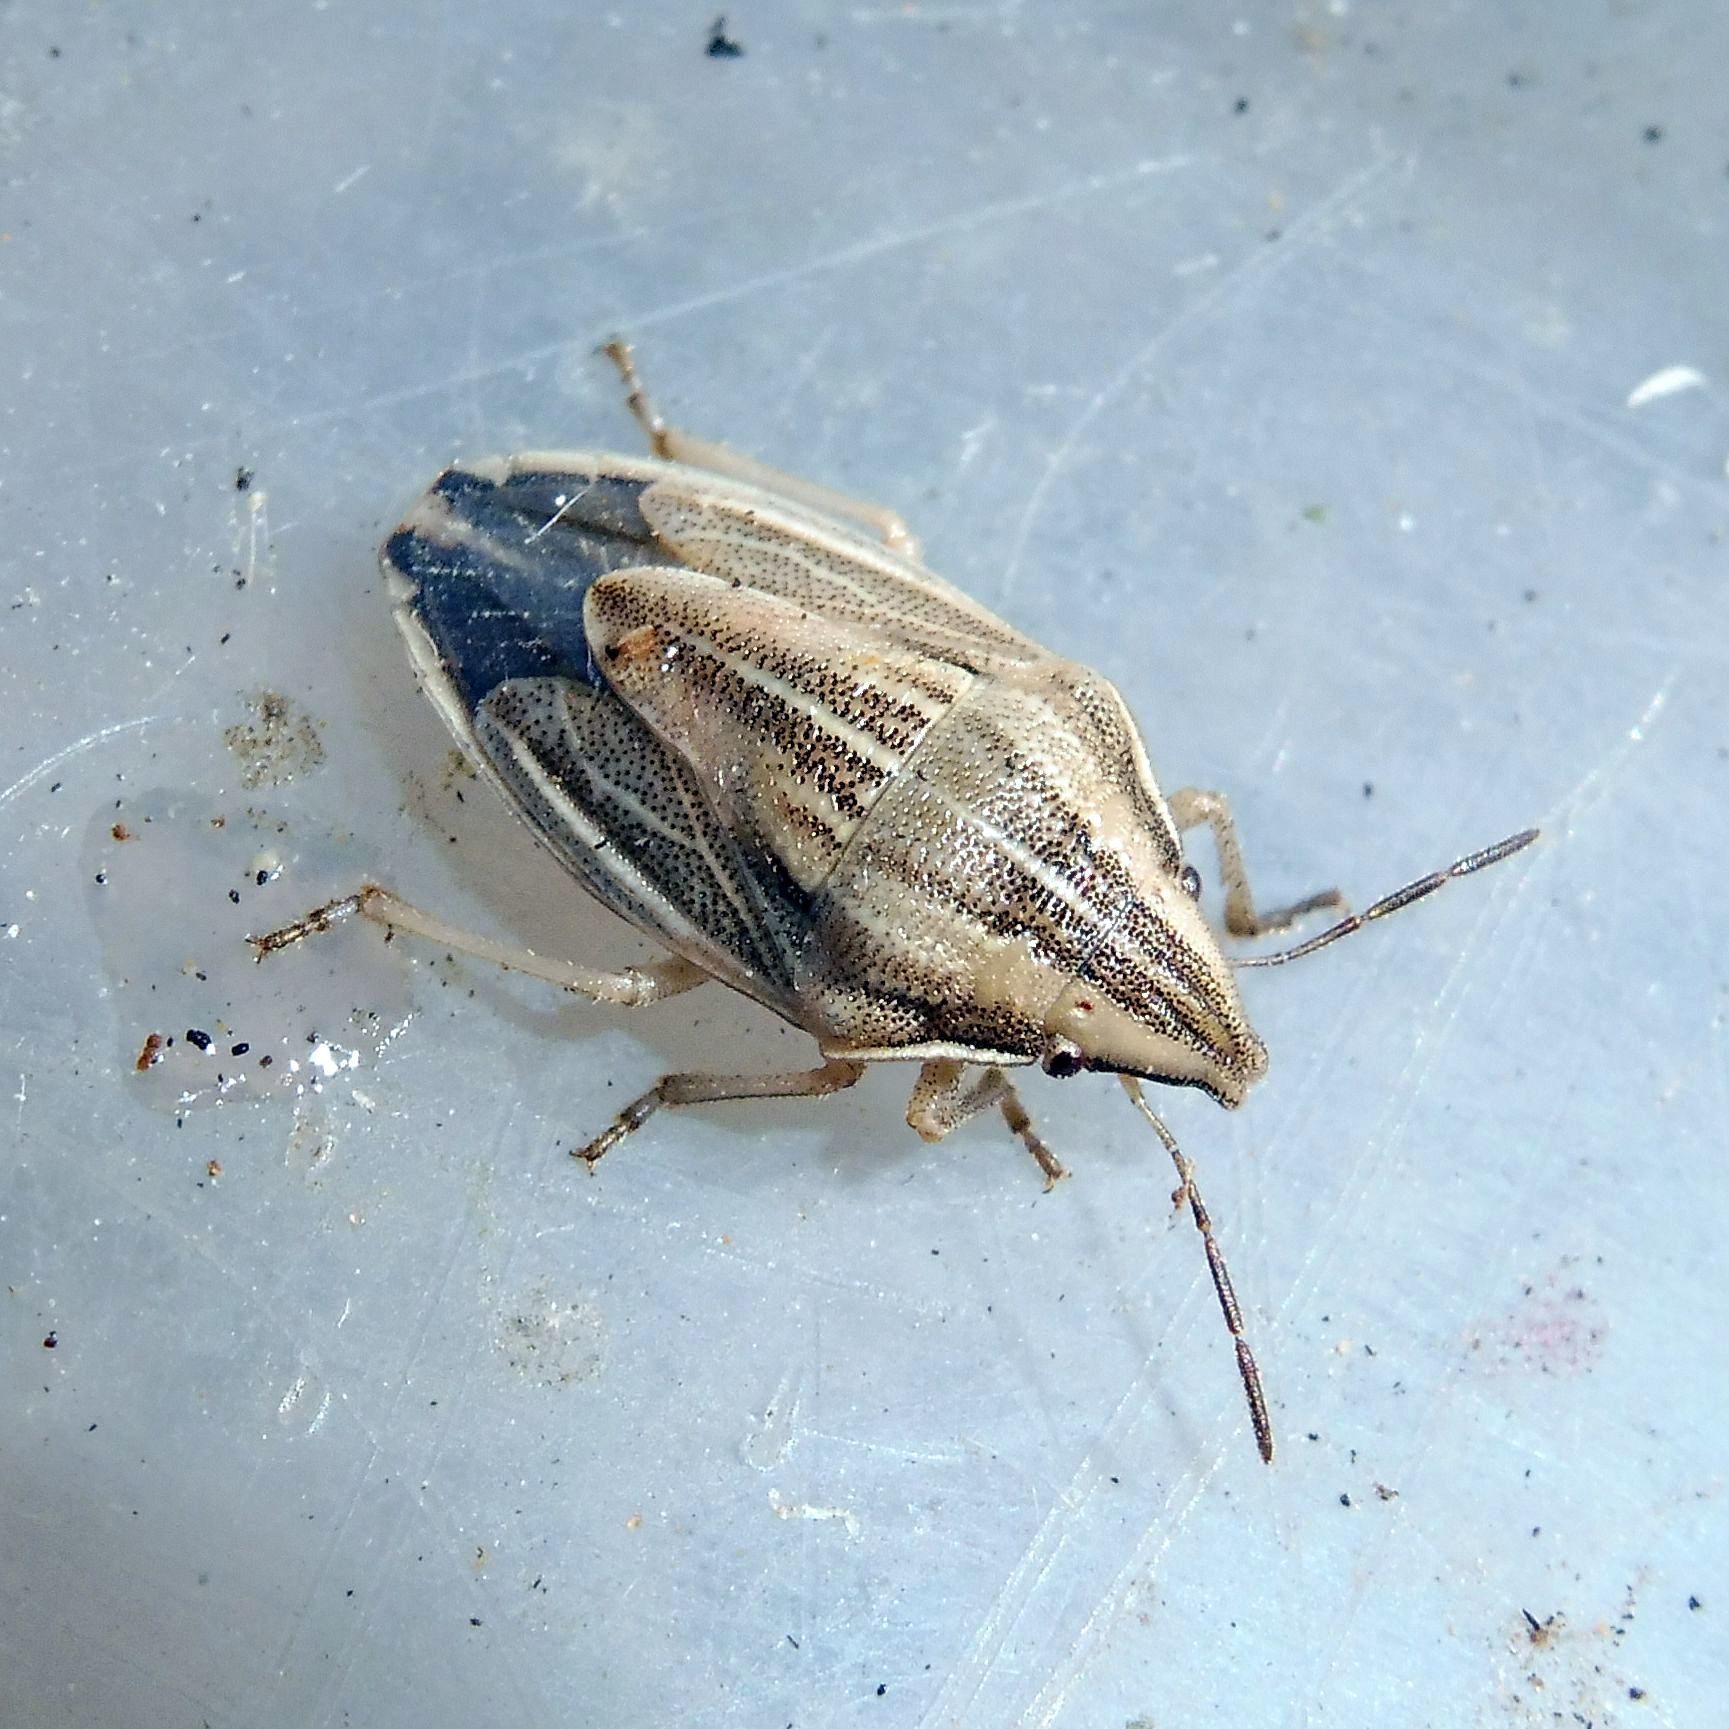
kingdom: Animalia
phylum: Arthropoda
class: Insecta
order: Hemiptera
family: Pentatomidae
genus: Aelia
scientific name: Aelia acuminata
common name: Bishop's mitre
